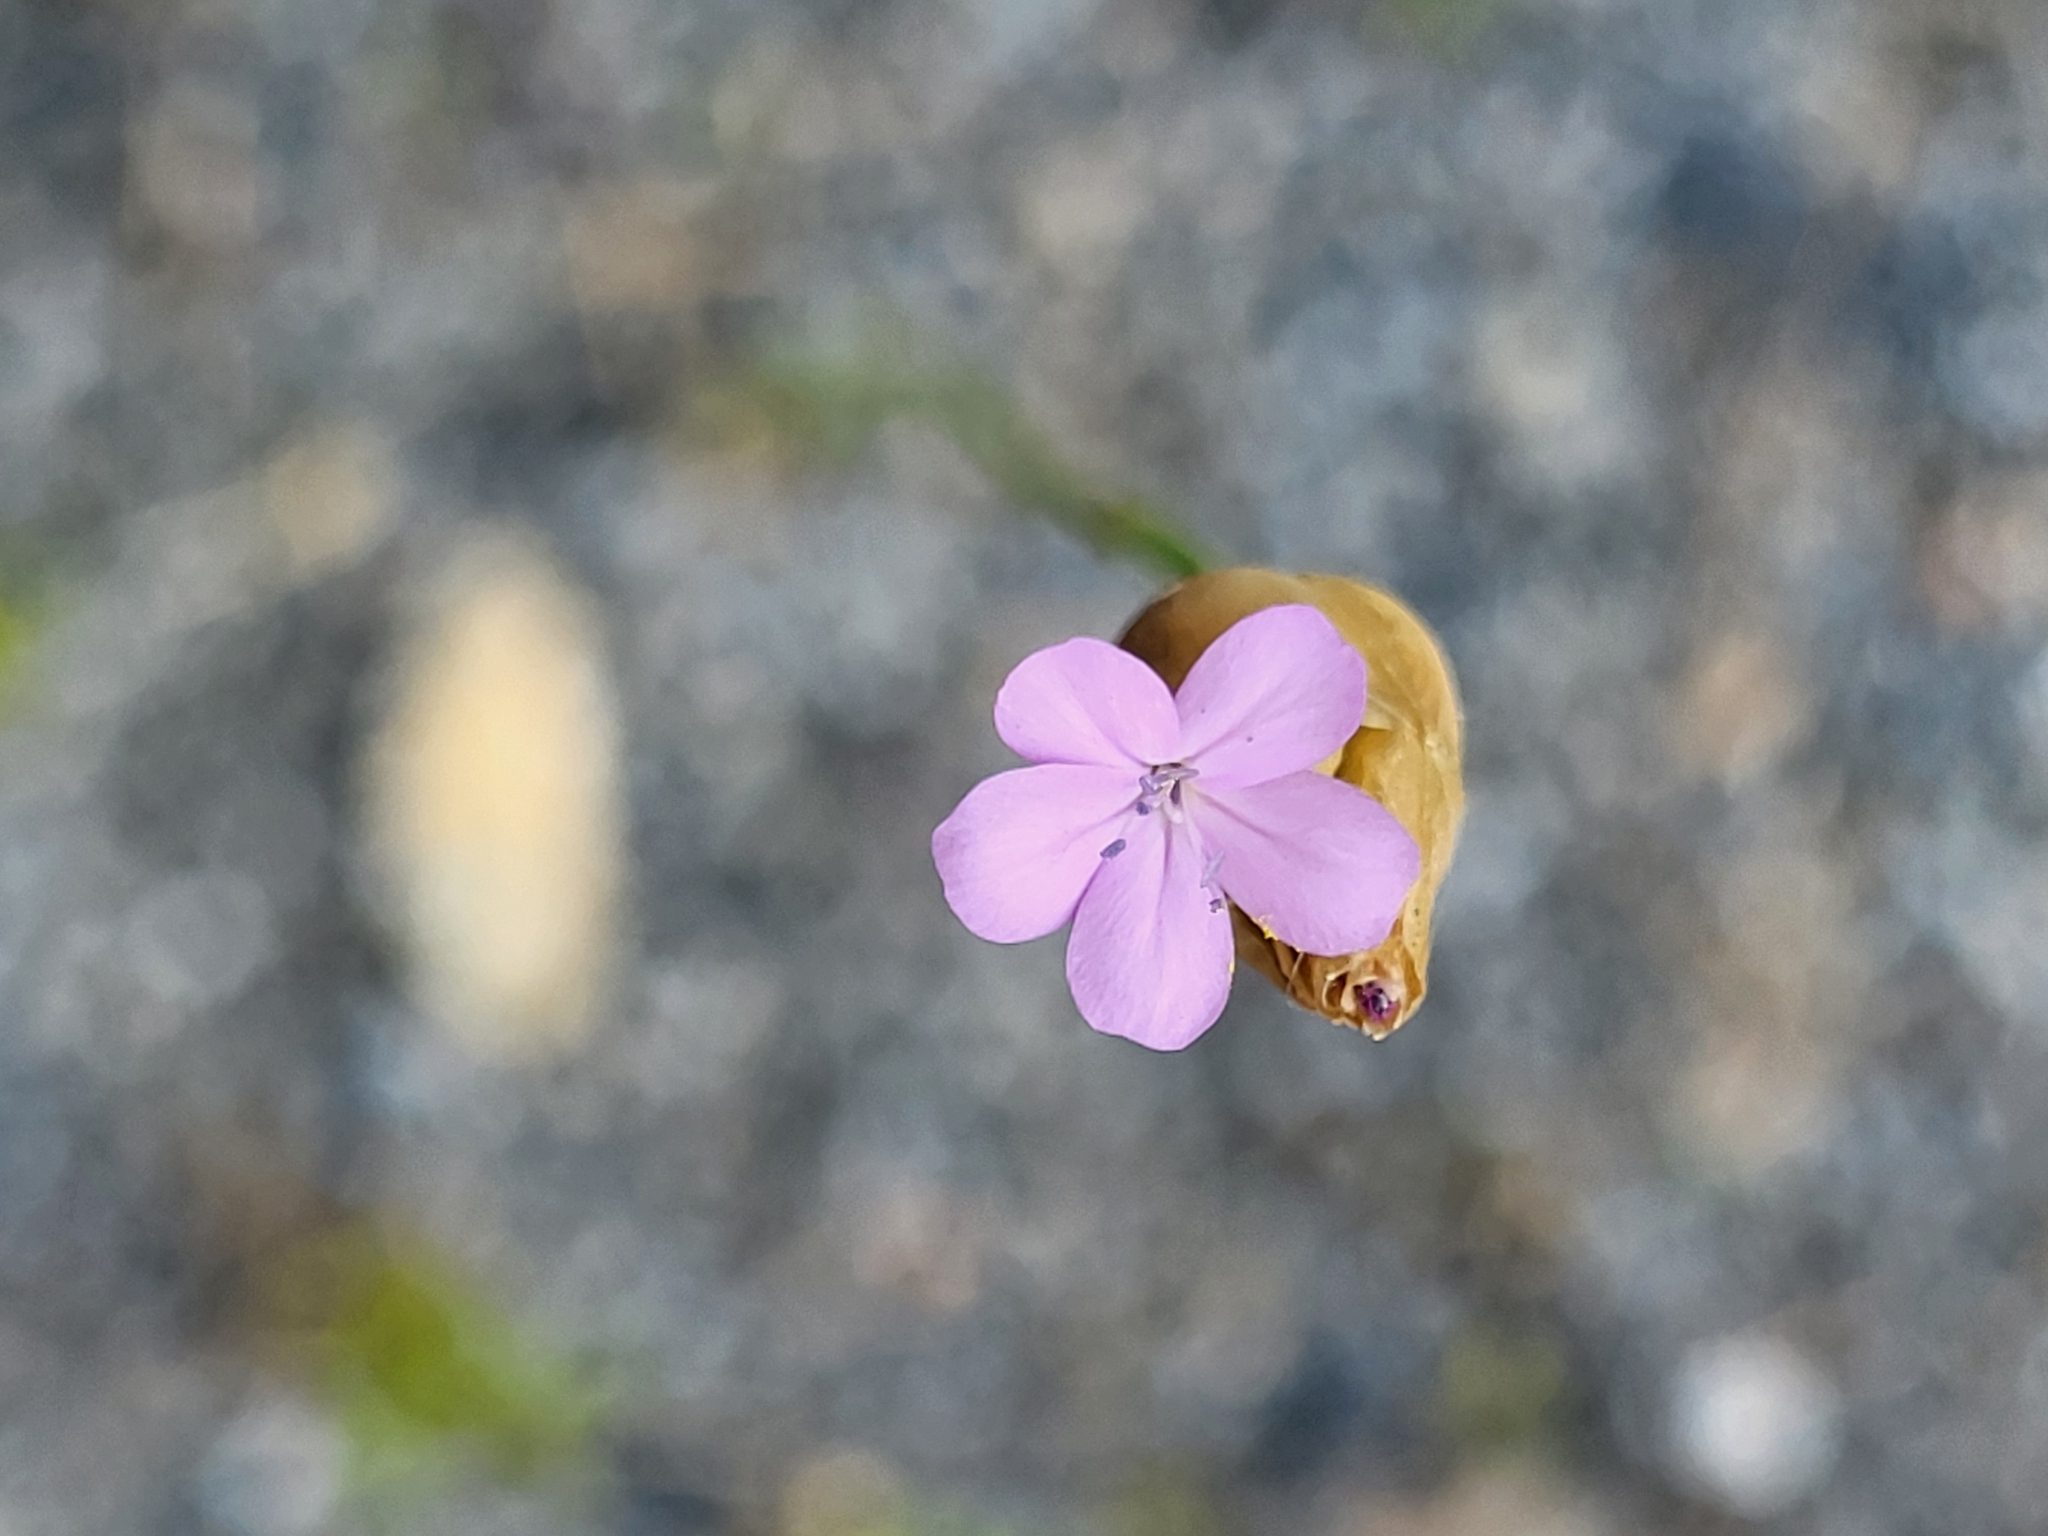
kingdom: Plantae
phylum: Tracheophyta
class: Magnoliopsida
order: Caryophyllales
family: Caryophyllaceae
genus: Petrorhagia
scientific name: Petrorhagia prolifera
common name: Proliferous pink
